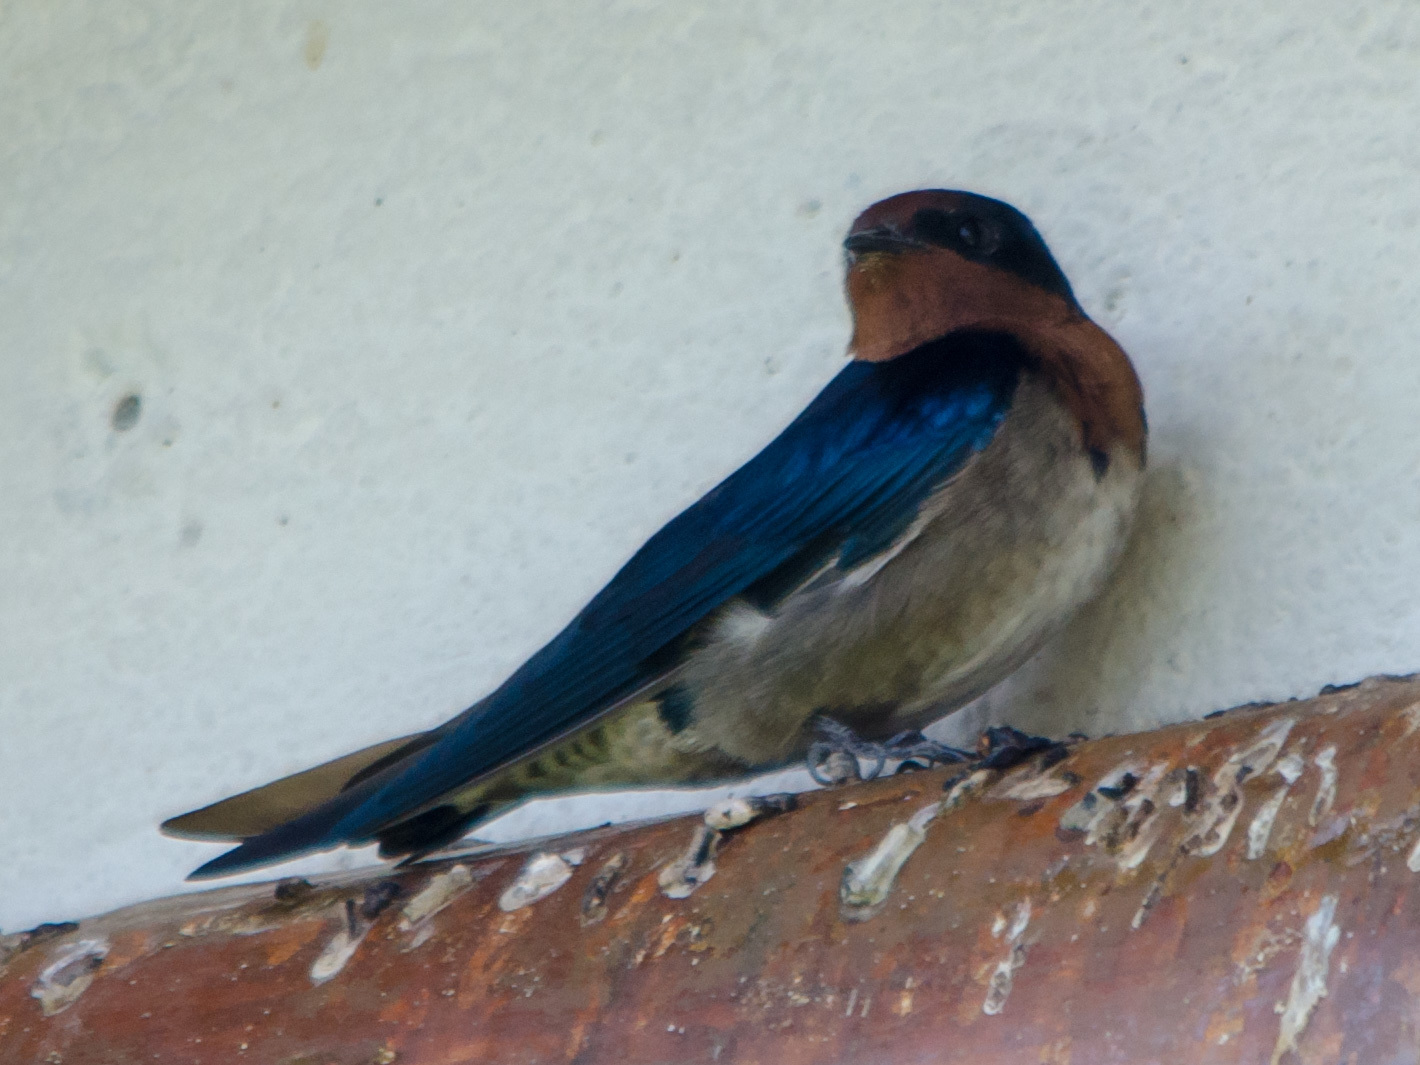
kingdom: Animalia
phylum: Chordata
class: Aves
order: Passeriformes
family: Hirundinidae
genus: Hirundo
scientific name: Hirundo angolensis
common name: Angola swallow
